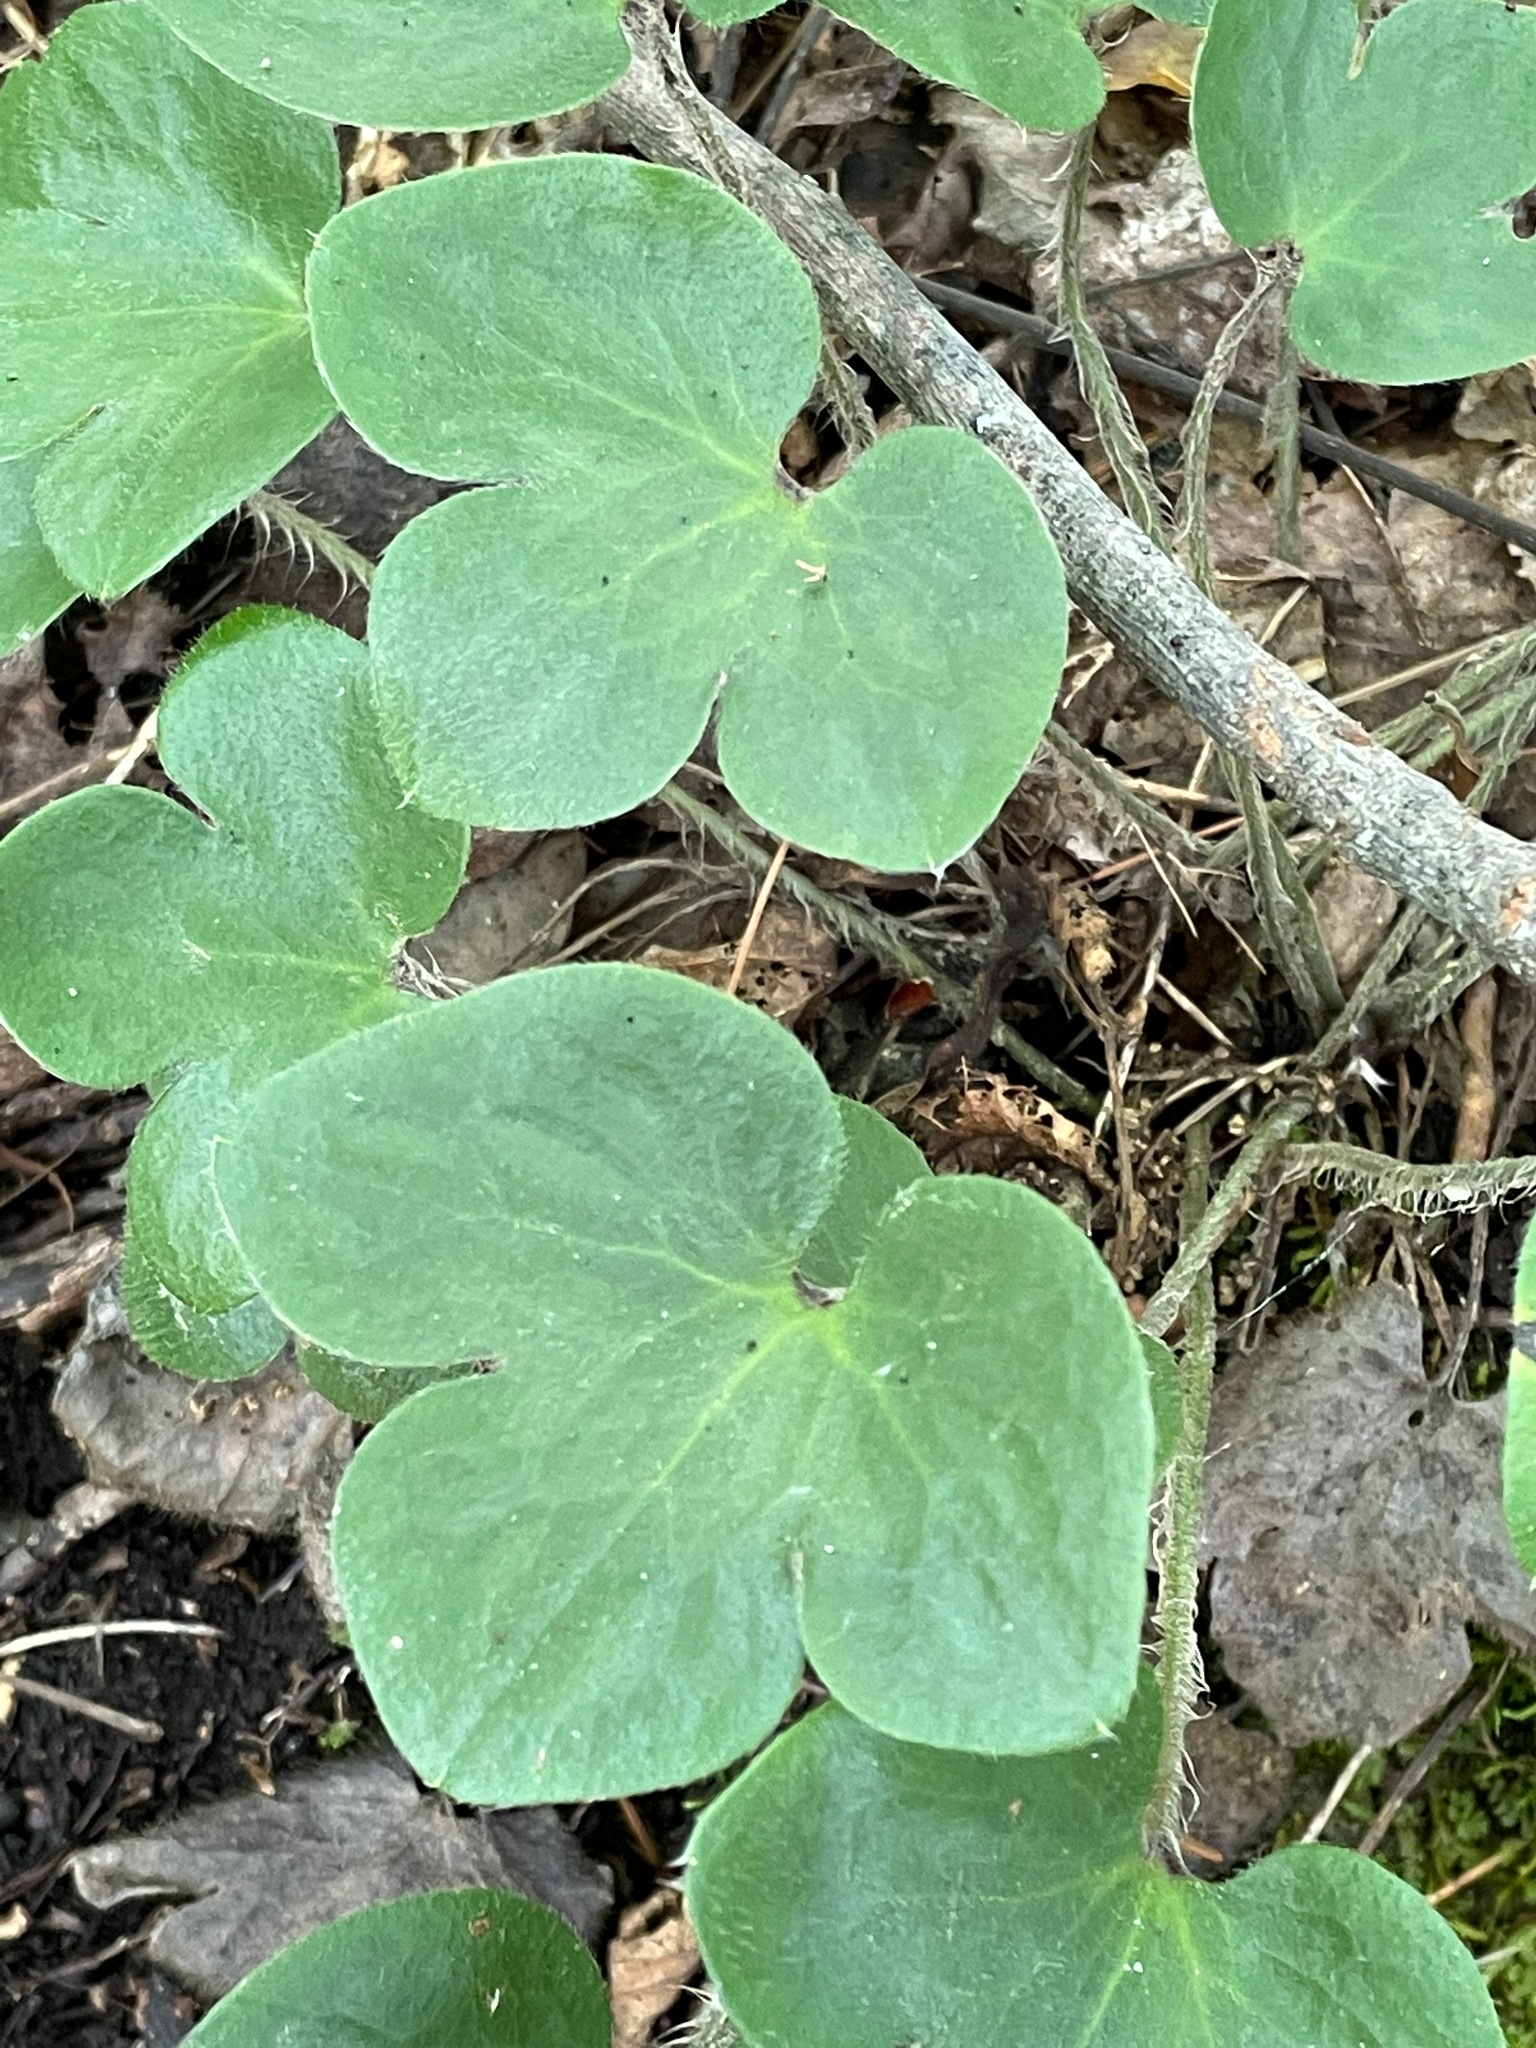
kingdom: Plantae
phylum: Tracheophyta
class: Magnoliopsida
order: Ranunculales
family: Ranunculaceae
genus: Hepatica
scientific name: Hepatica americana
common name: American hepatica
